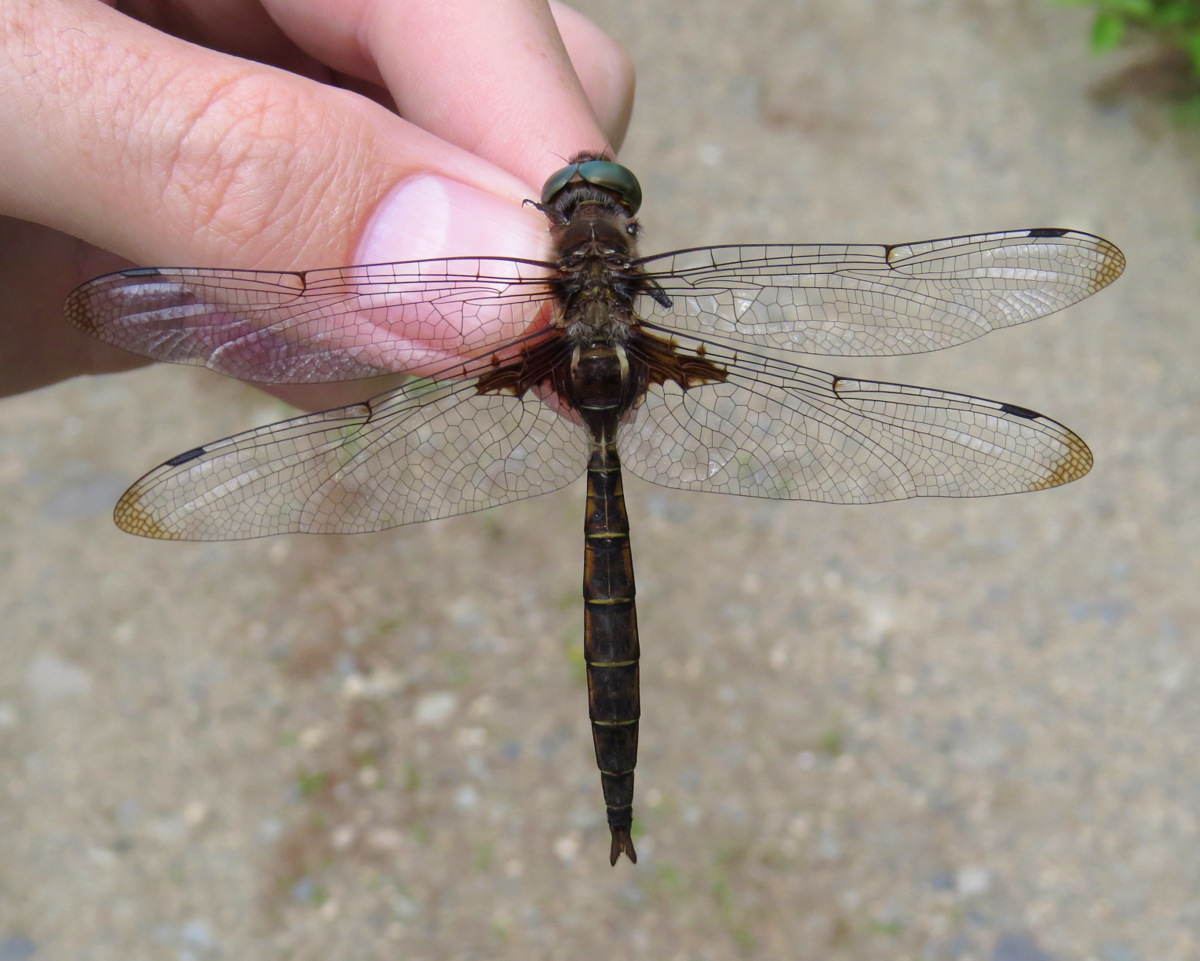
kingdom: Animalia
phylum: Arthropoda
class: Insecta
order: Odonata
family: Corduliidae
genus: Epitheca
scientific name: Epitheca princeps
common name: Prince baskettail
